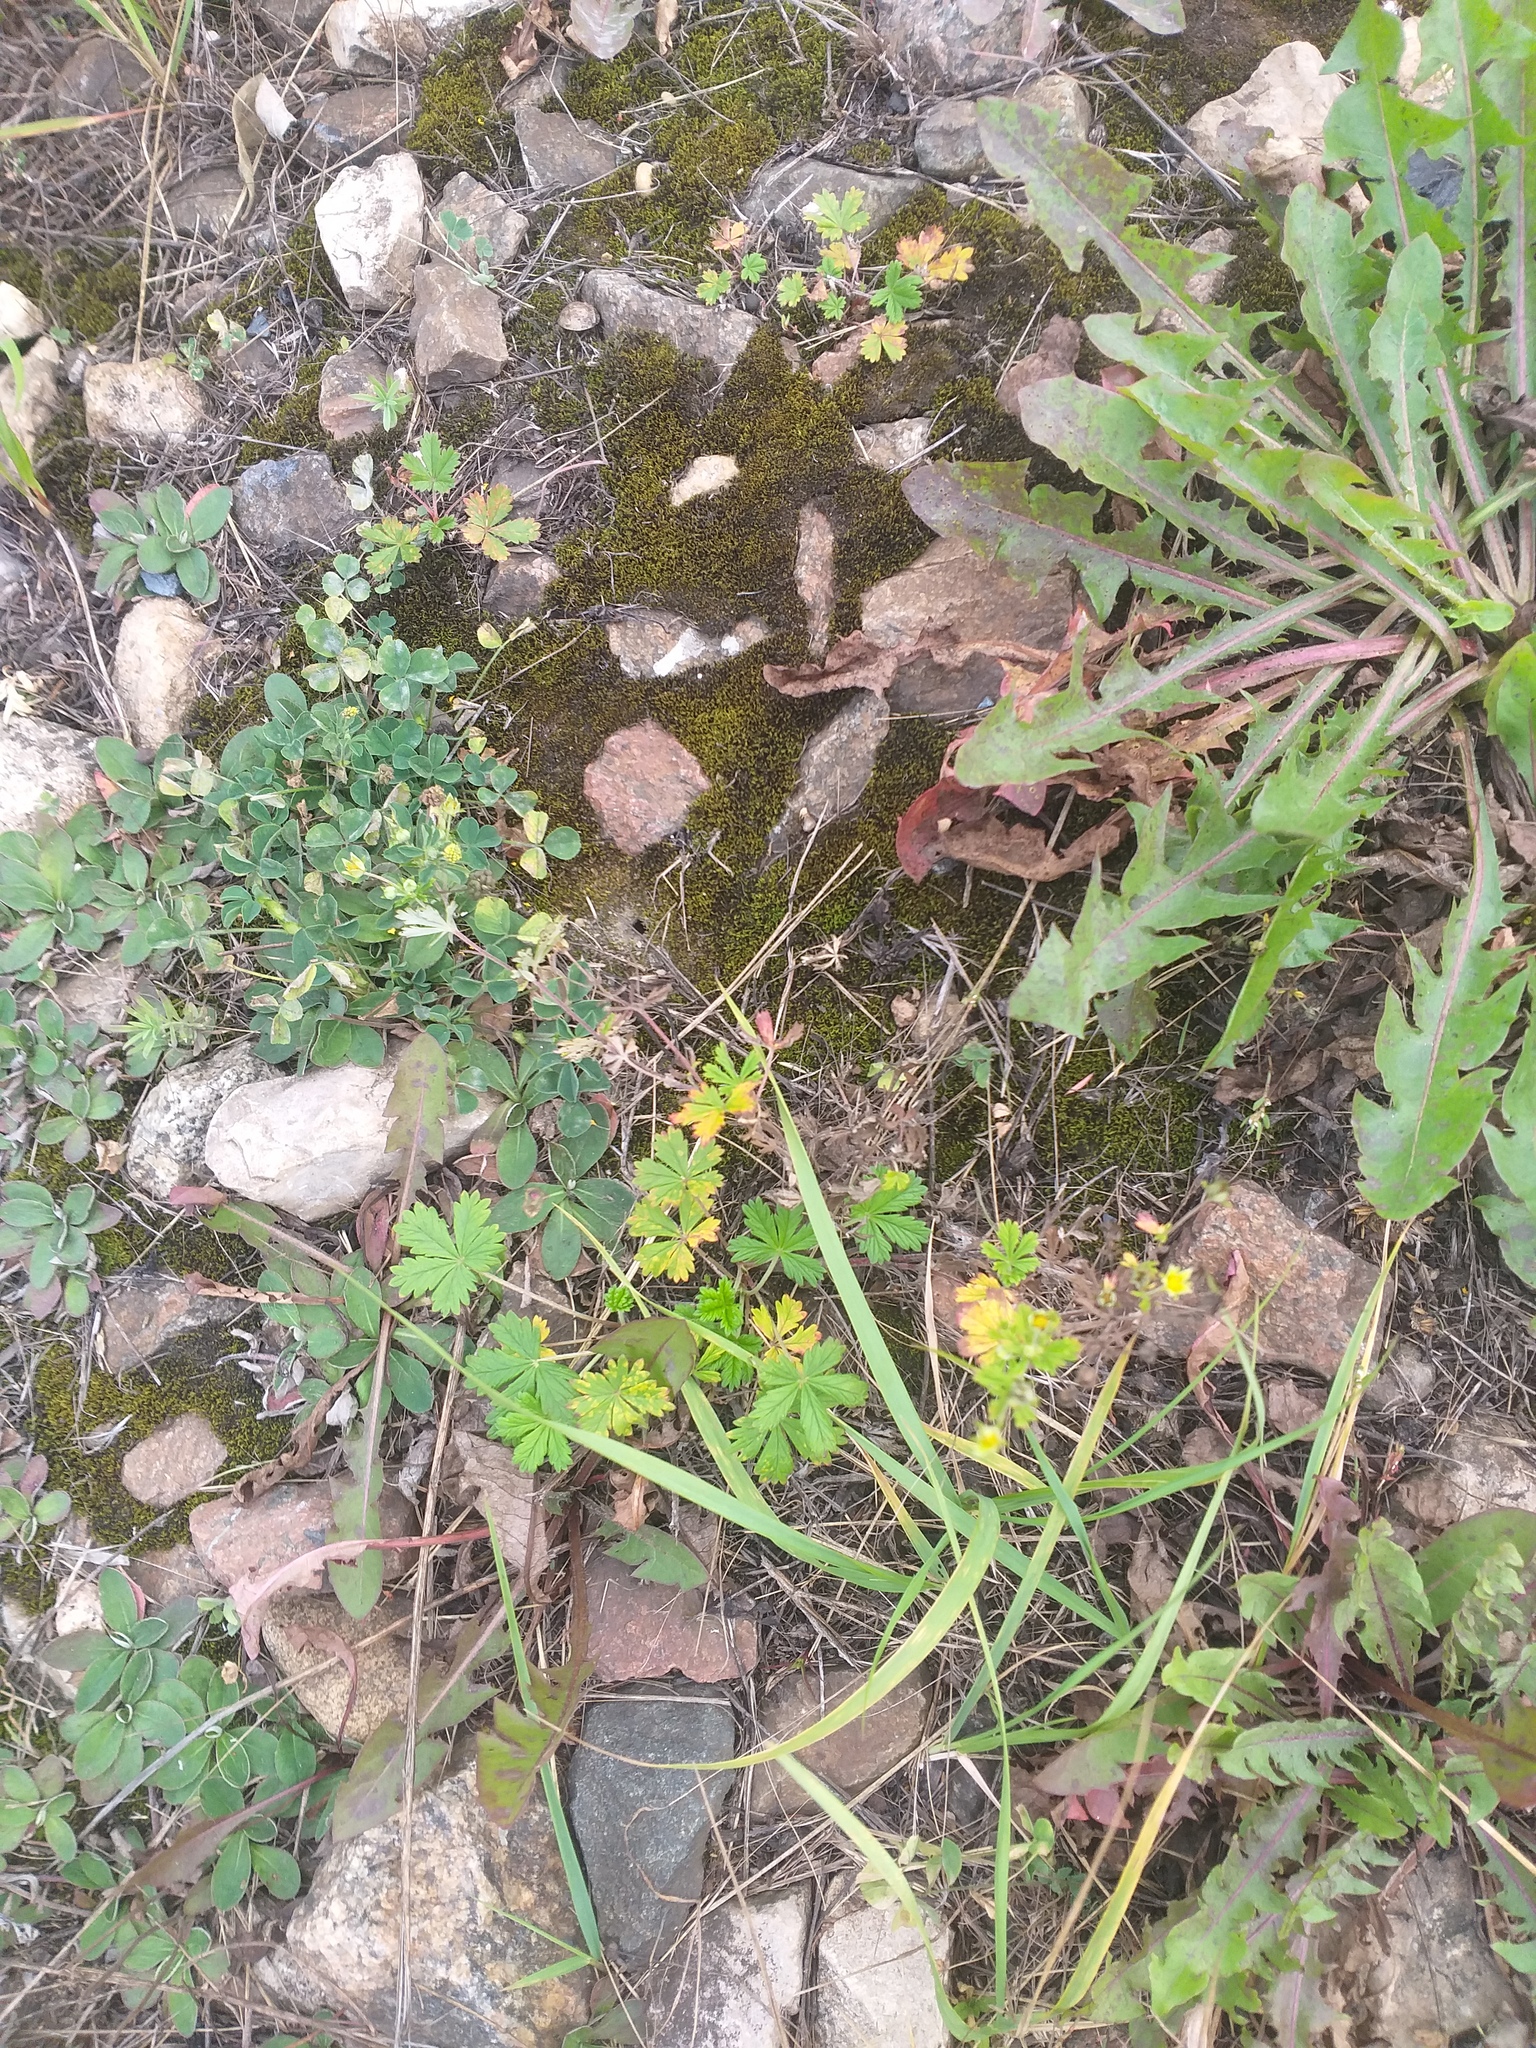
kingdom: Plantae
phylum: Tracheophyta
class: Magnoliopsida
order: Rosales
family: Rosaceae
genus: Potentilla
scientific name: Potentilla argentea
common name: Hoary cinquefoil
